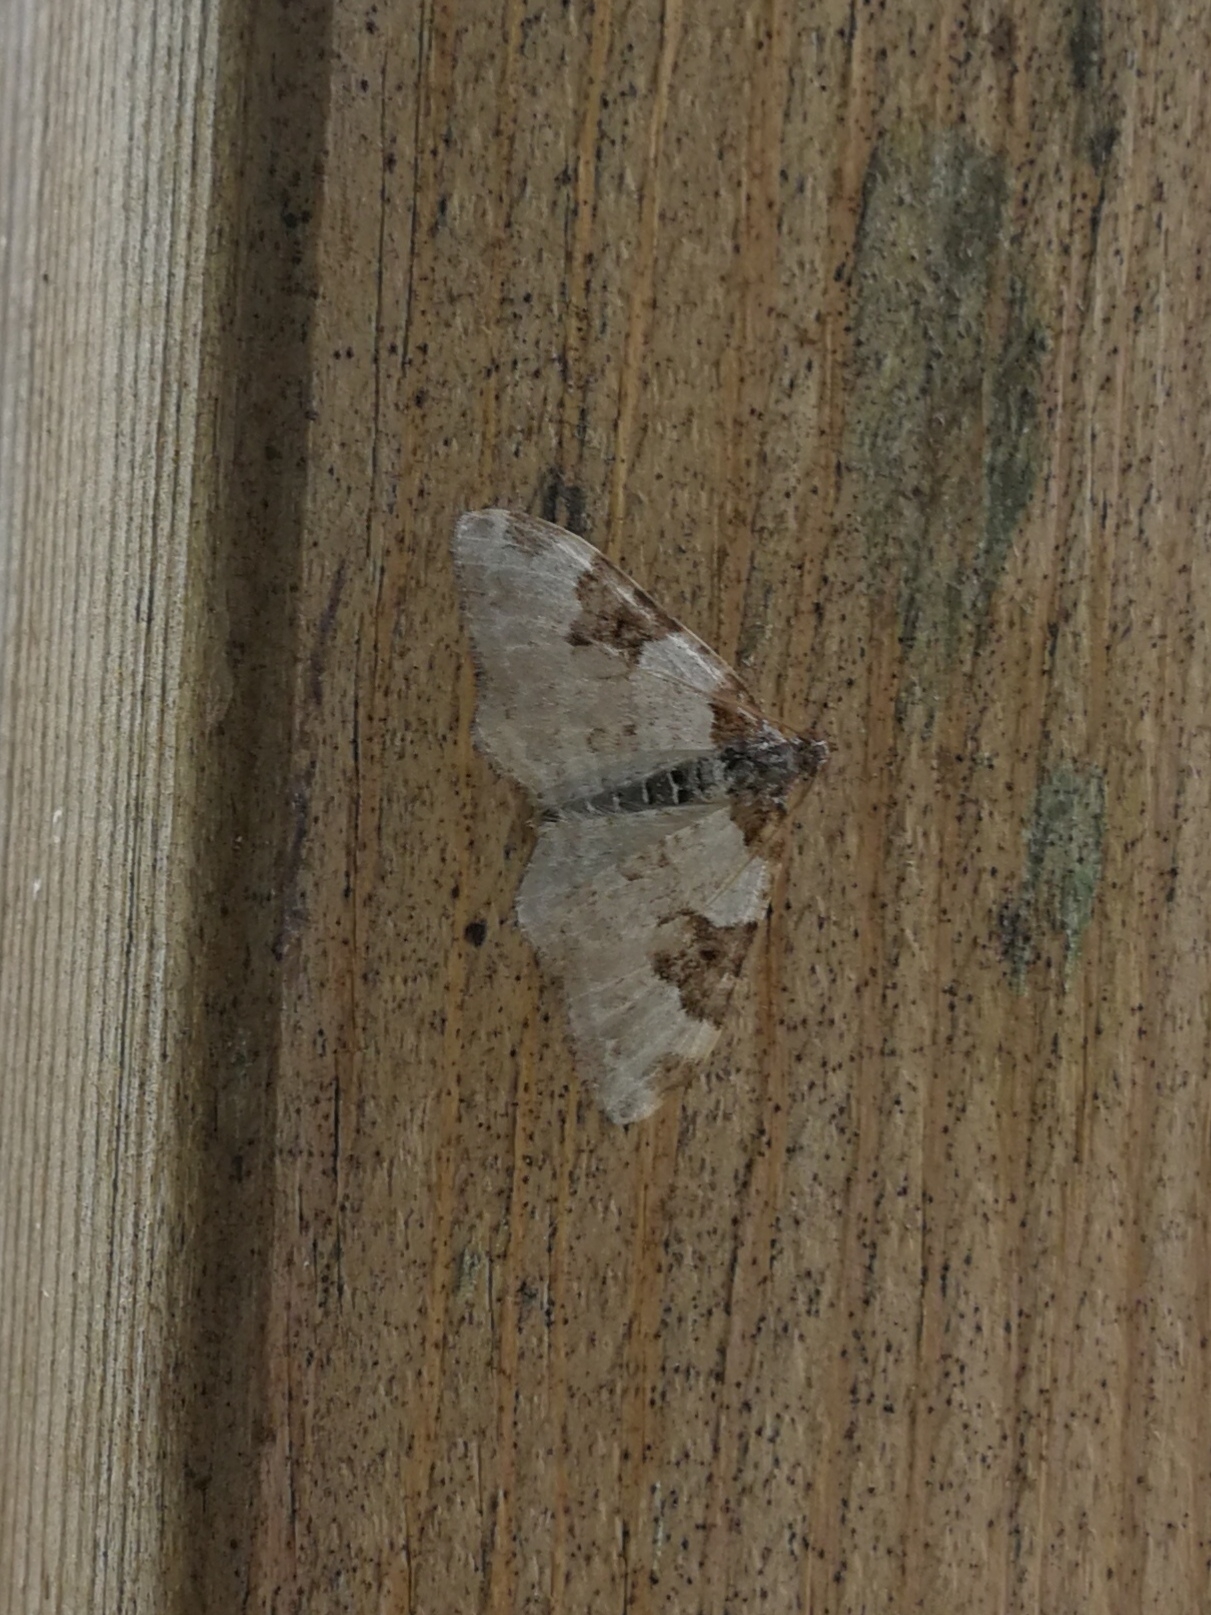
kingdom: Animalia
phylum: Arthropoda
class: Insecta
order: Lepidoptera
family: Geometridae
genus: Xanthorhoe
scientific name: Xanthorhoe fluctuata
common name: Garden carpet
